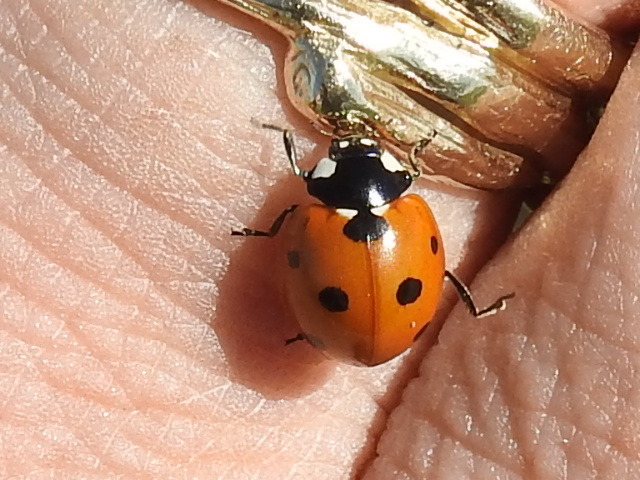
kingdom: Animalia
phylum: Arthropoda
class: Insecta
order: Coleoptera
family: Coccinellidae
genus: Coccinella
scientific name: Coccinella septempunctata
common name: Sevenspotted lady beetle
